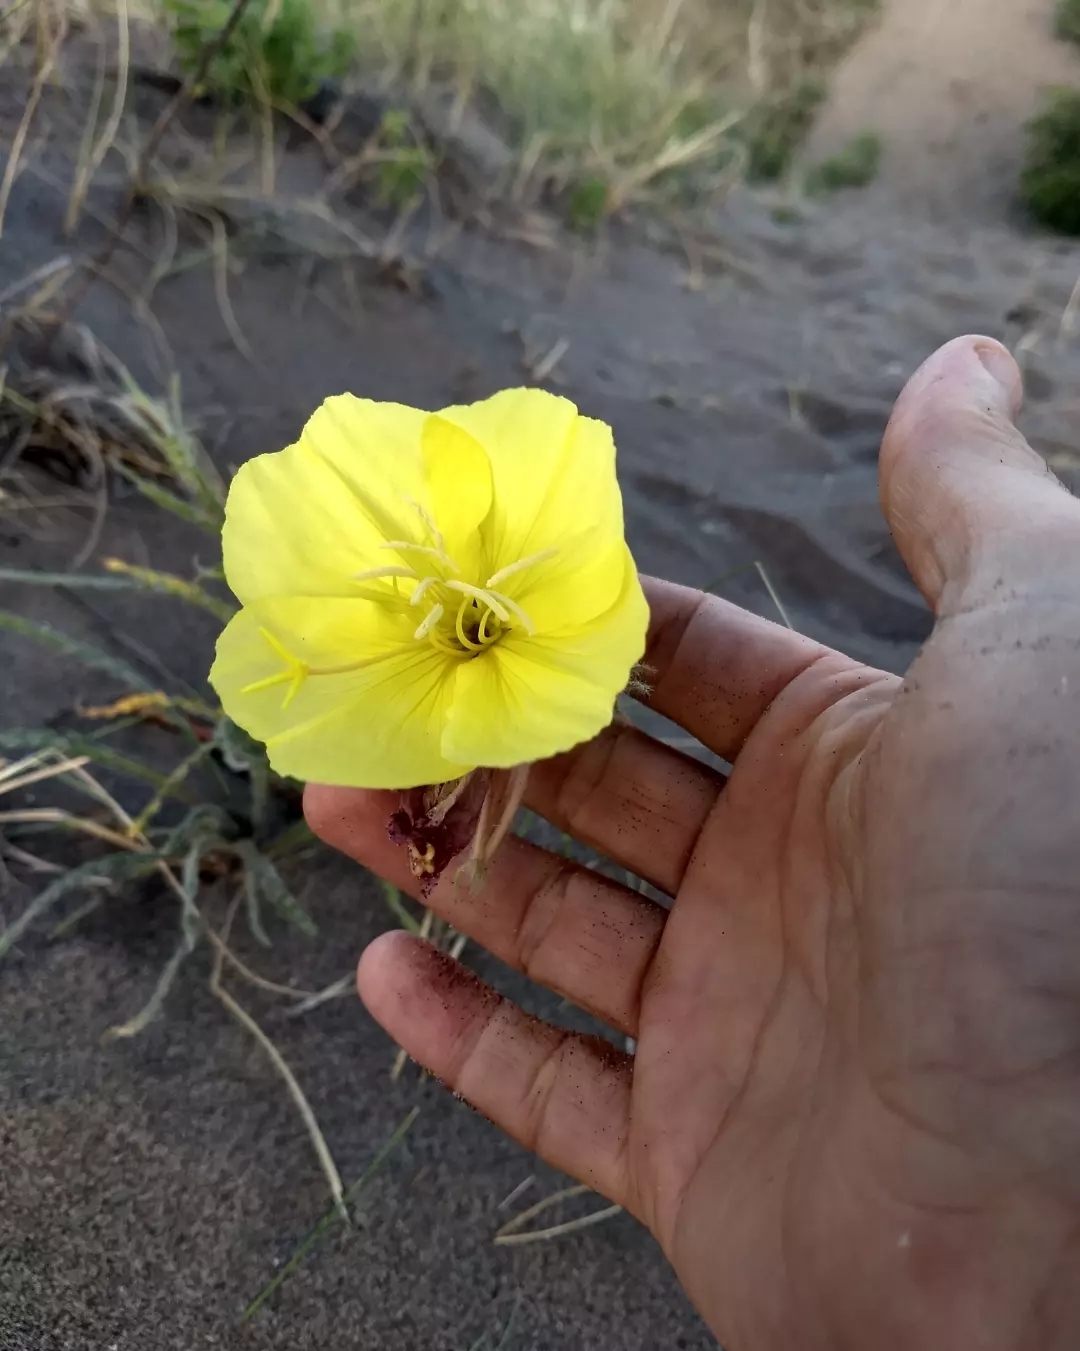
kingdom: Plantae
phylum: Tracheophyta
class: Magnoliopsida
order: Myrtales
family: Onagraceae
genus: Oenothera
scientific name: Oenothera odorata
